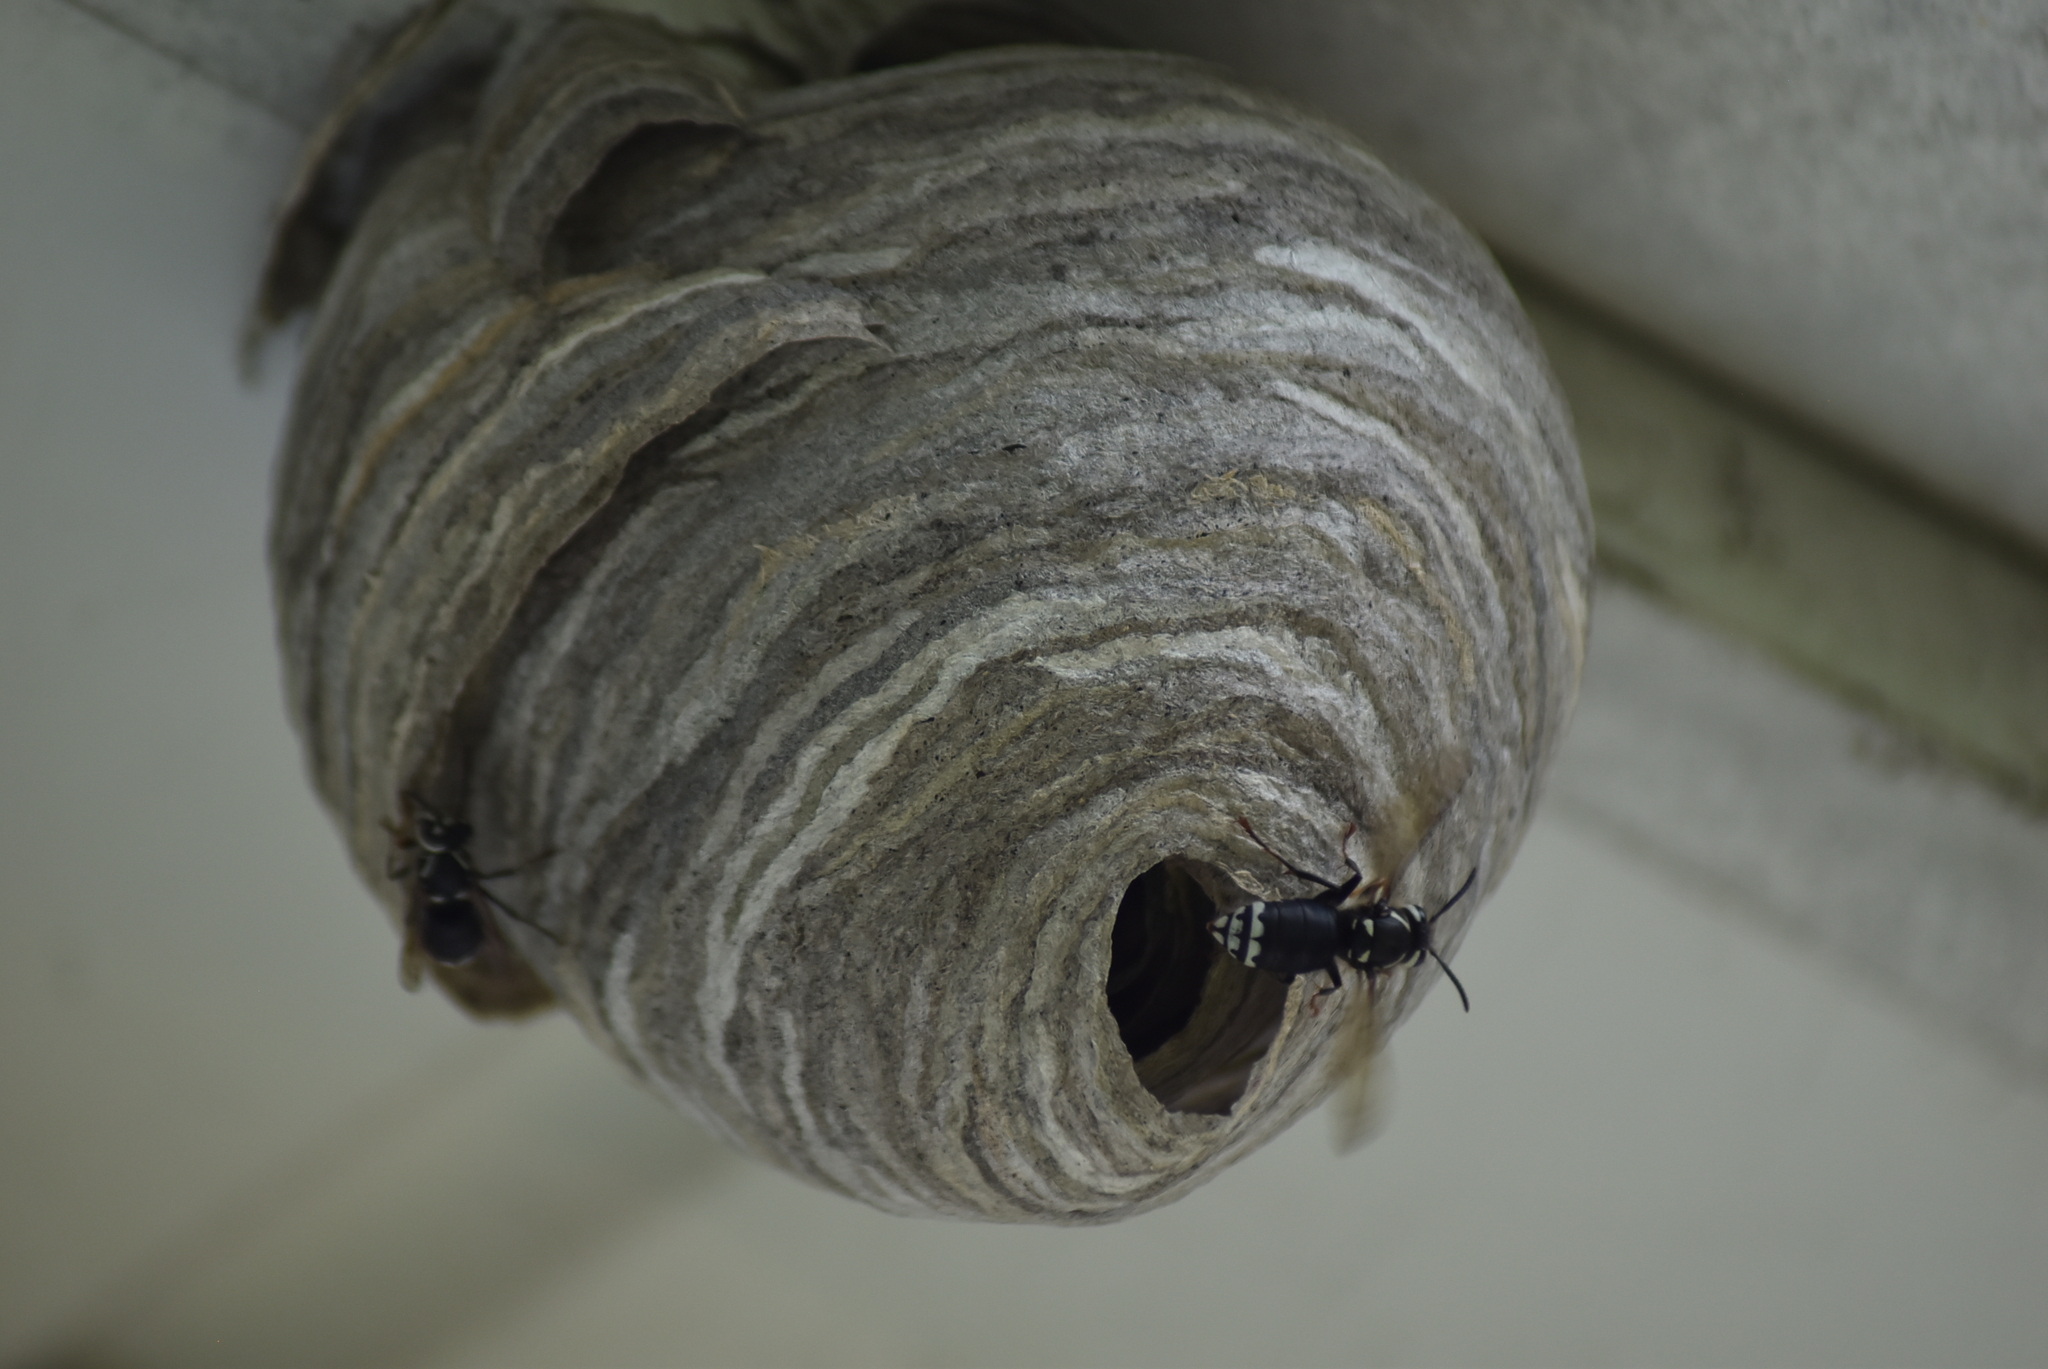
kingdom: Animalia
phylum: Arthropoda
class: Insecta
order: Hymenoptera
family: Vespidae
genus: Dolichovespula
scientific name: Dolichovespula maculata
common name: Bald-faced hornet
